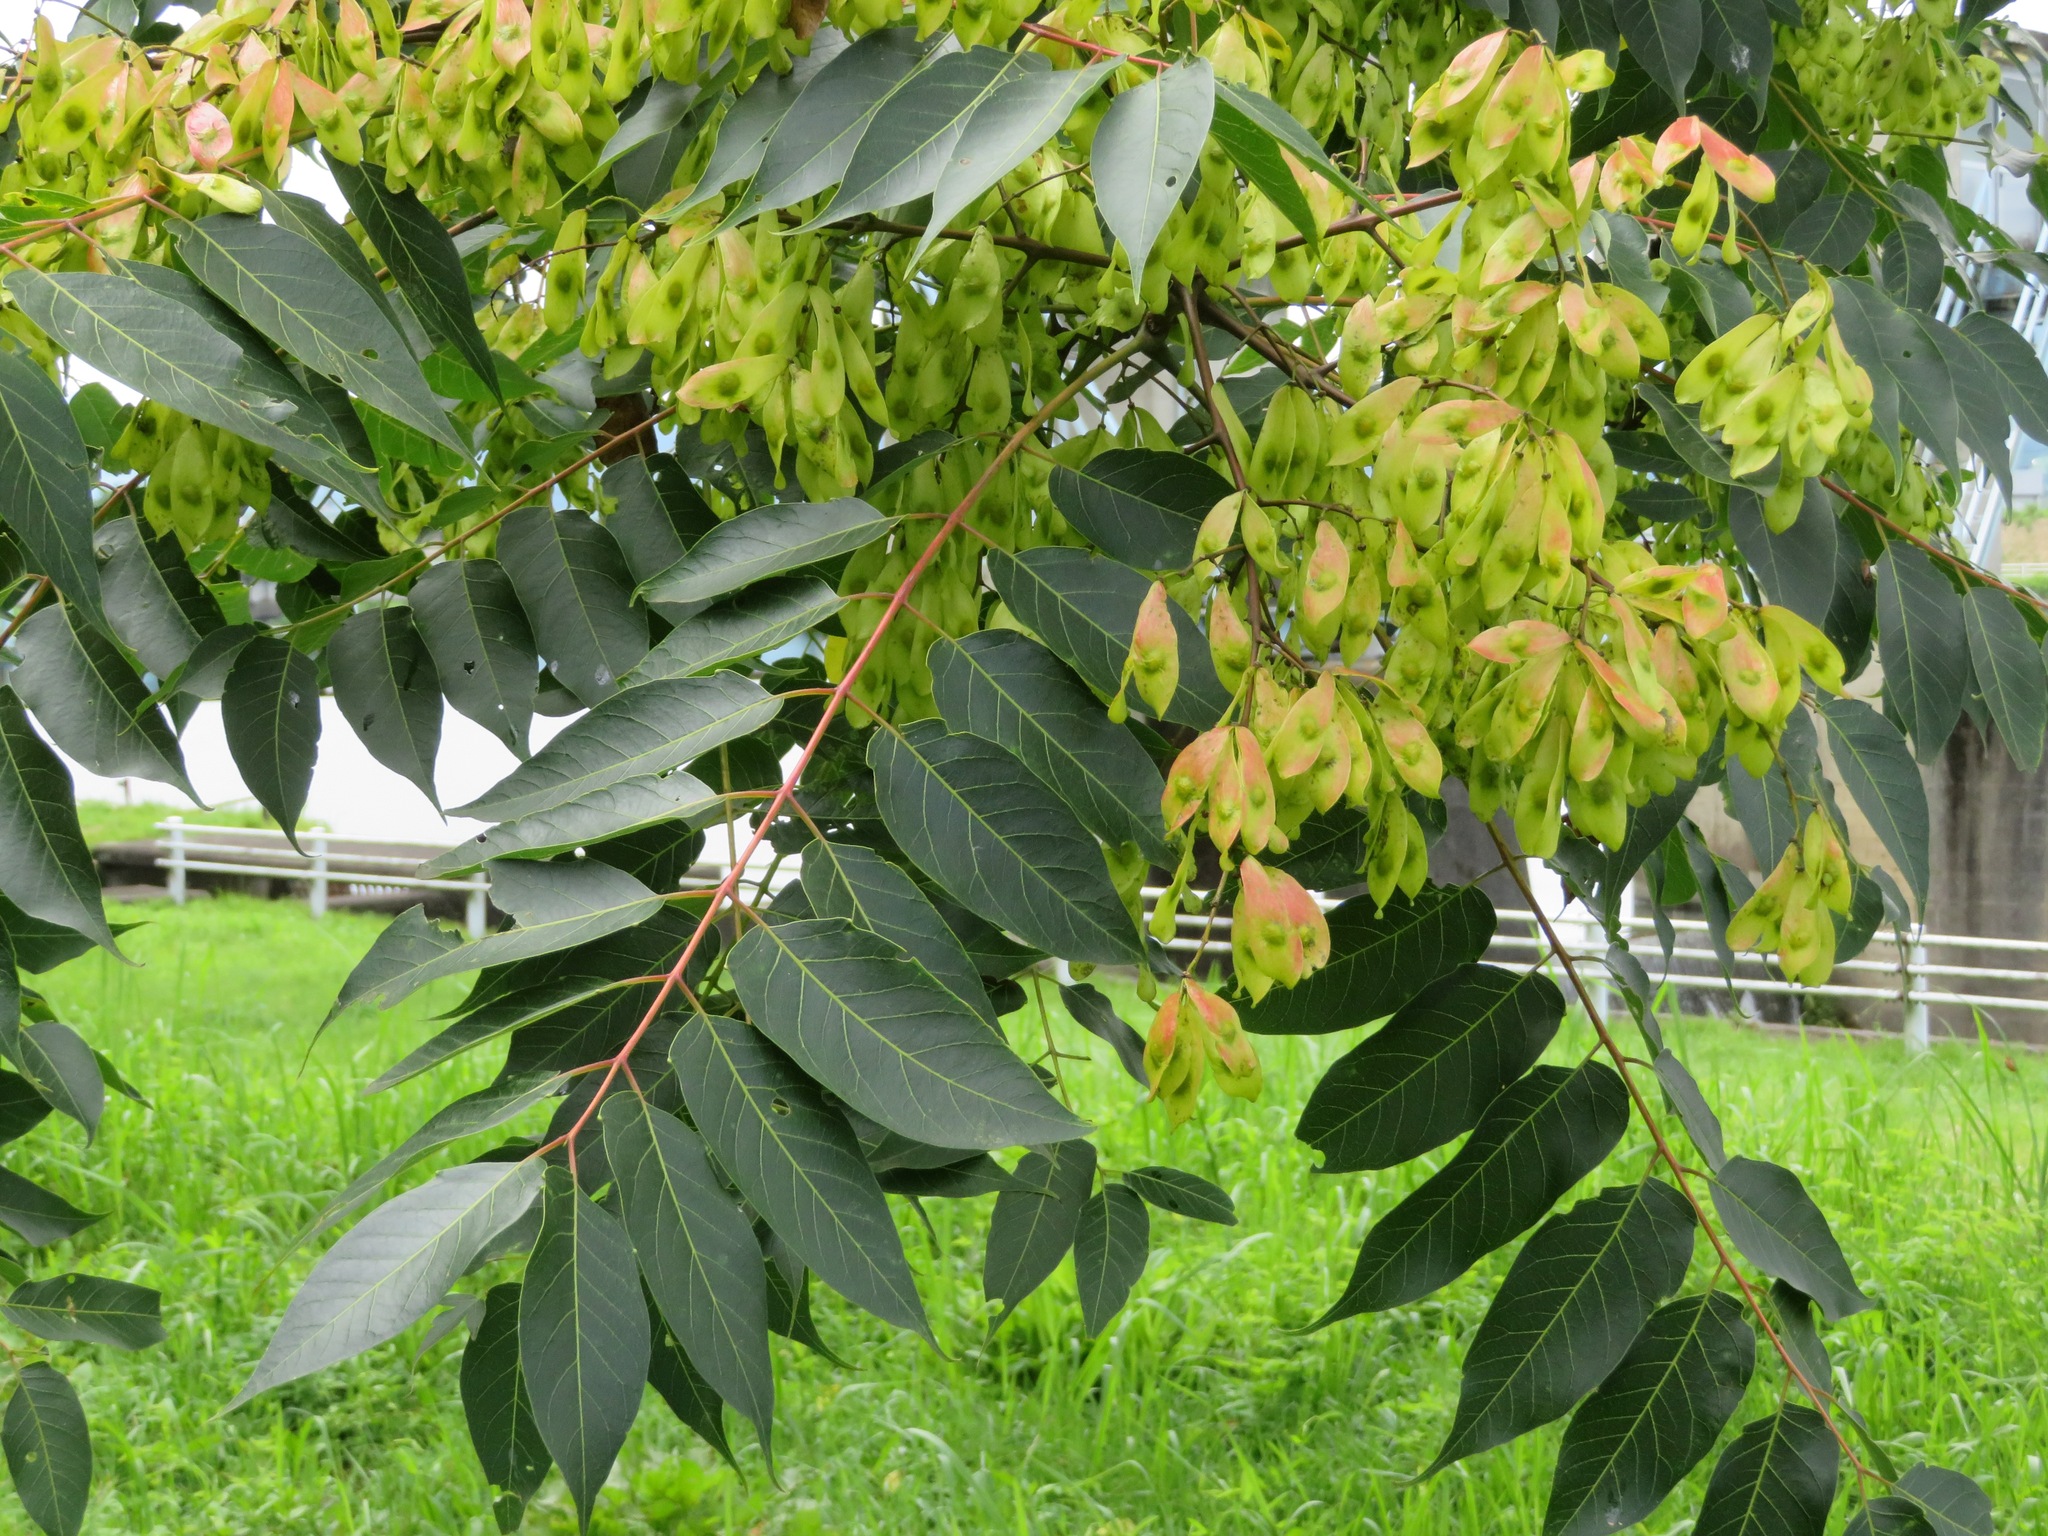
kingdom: Plantae
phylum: Tracheophyta
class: Magnoliopsida
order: Sapindales
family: Simaroubaceae
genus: Ailanthus
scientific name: Ailanthus altissima
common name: Tree-of-heaven
